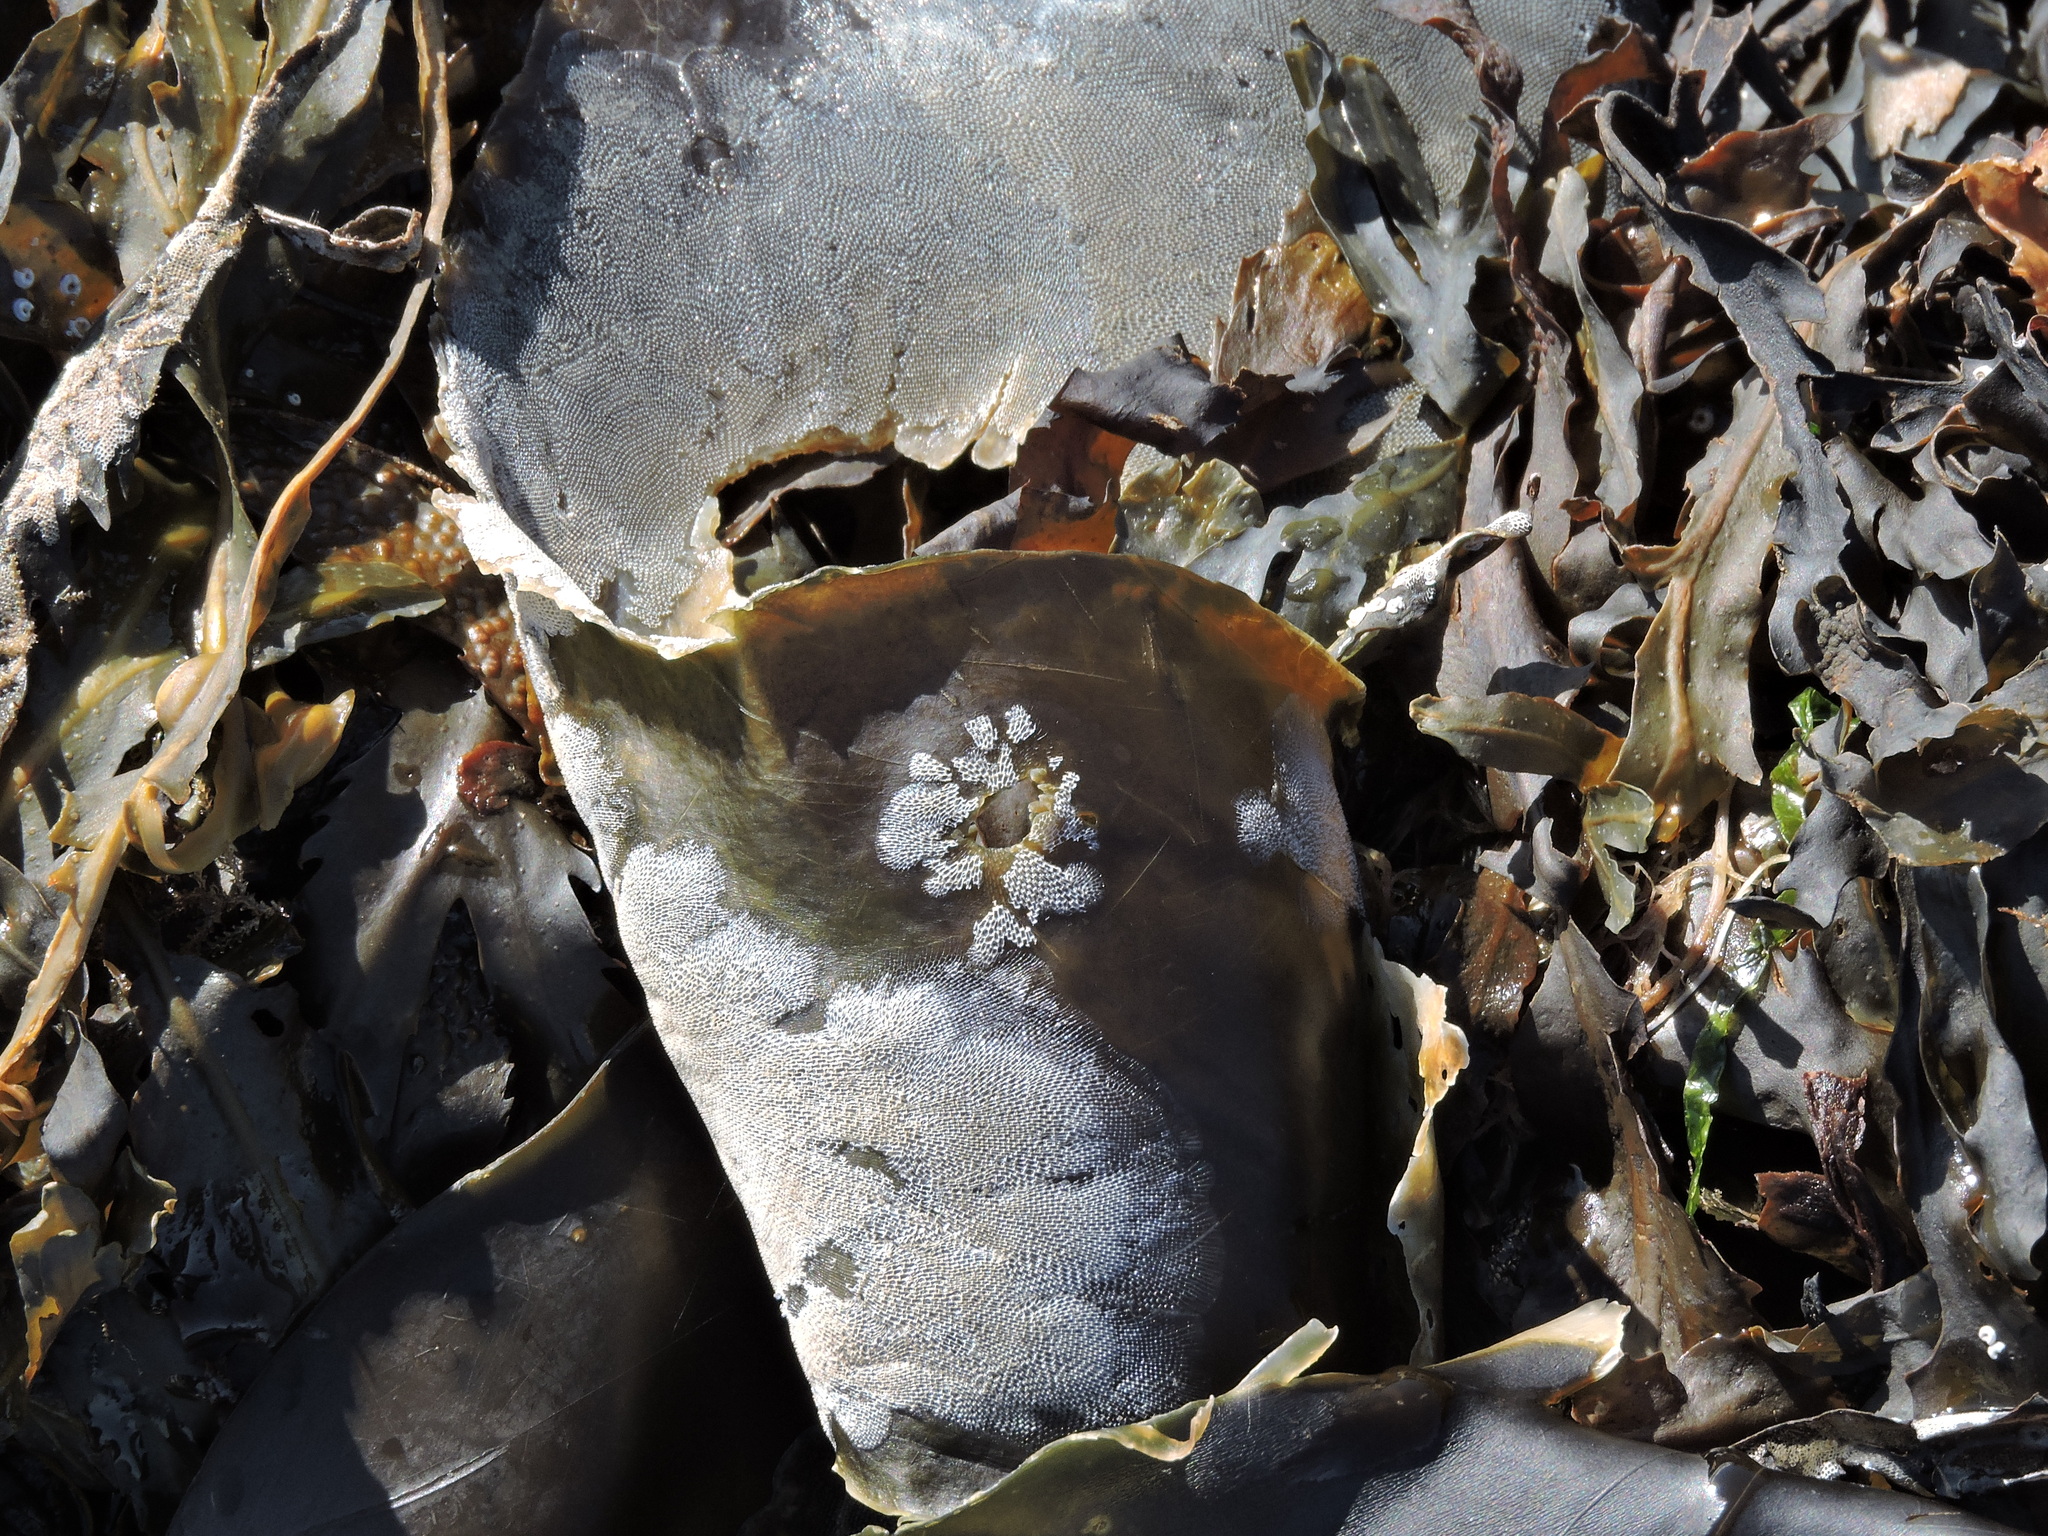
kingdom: Animalia
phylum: Bryozoa
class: Gymnolaemata
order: Cheilostomatida
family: Membraniporidae
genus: Membranipora
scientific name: Membranipora membranacea
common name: Sea mat
